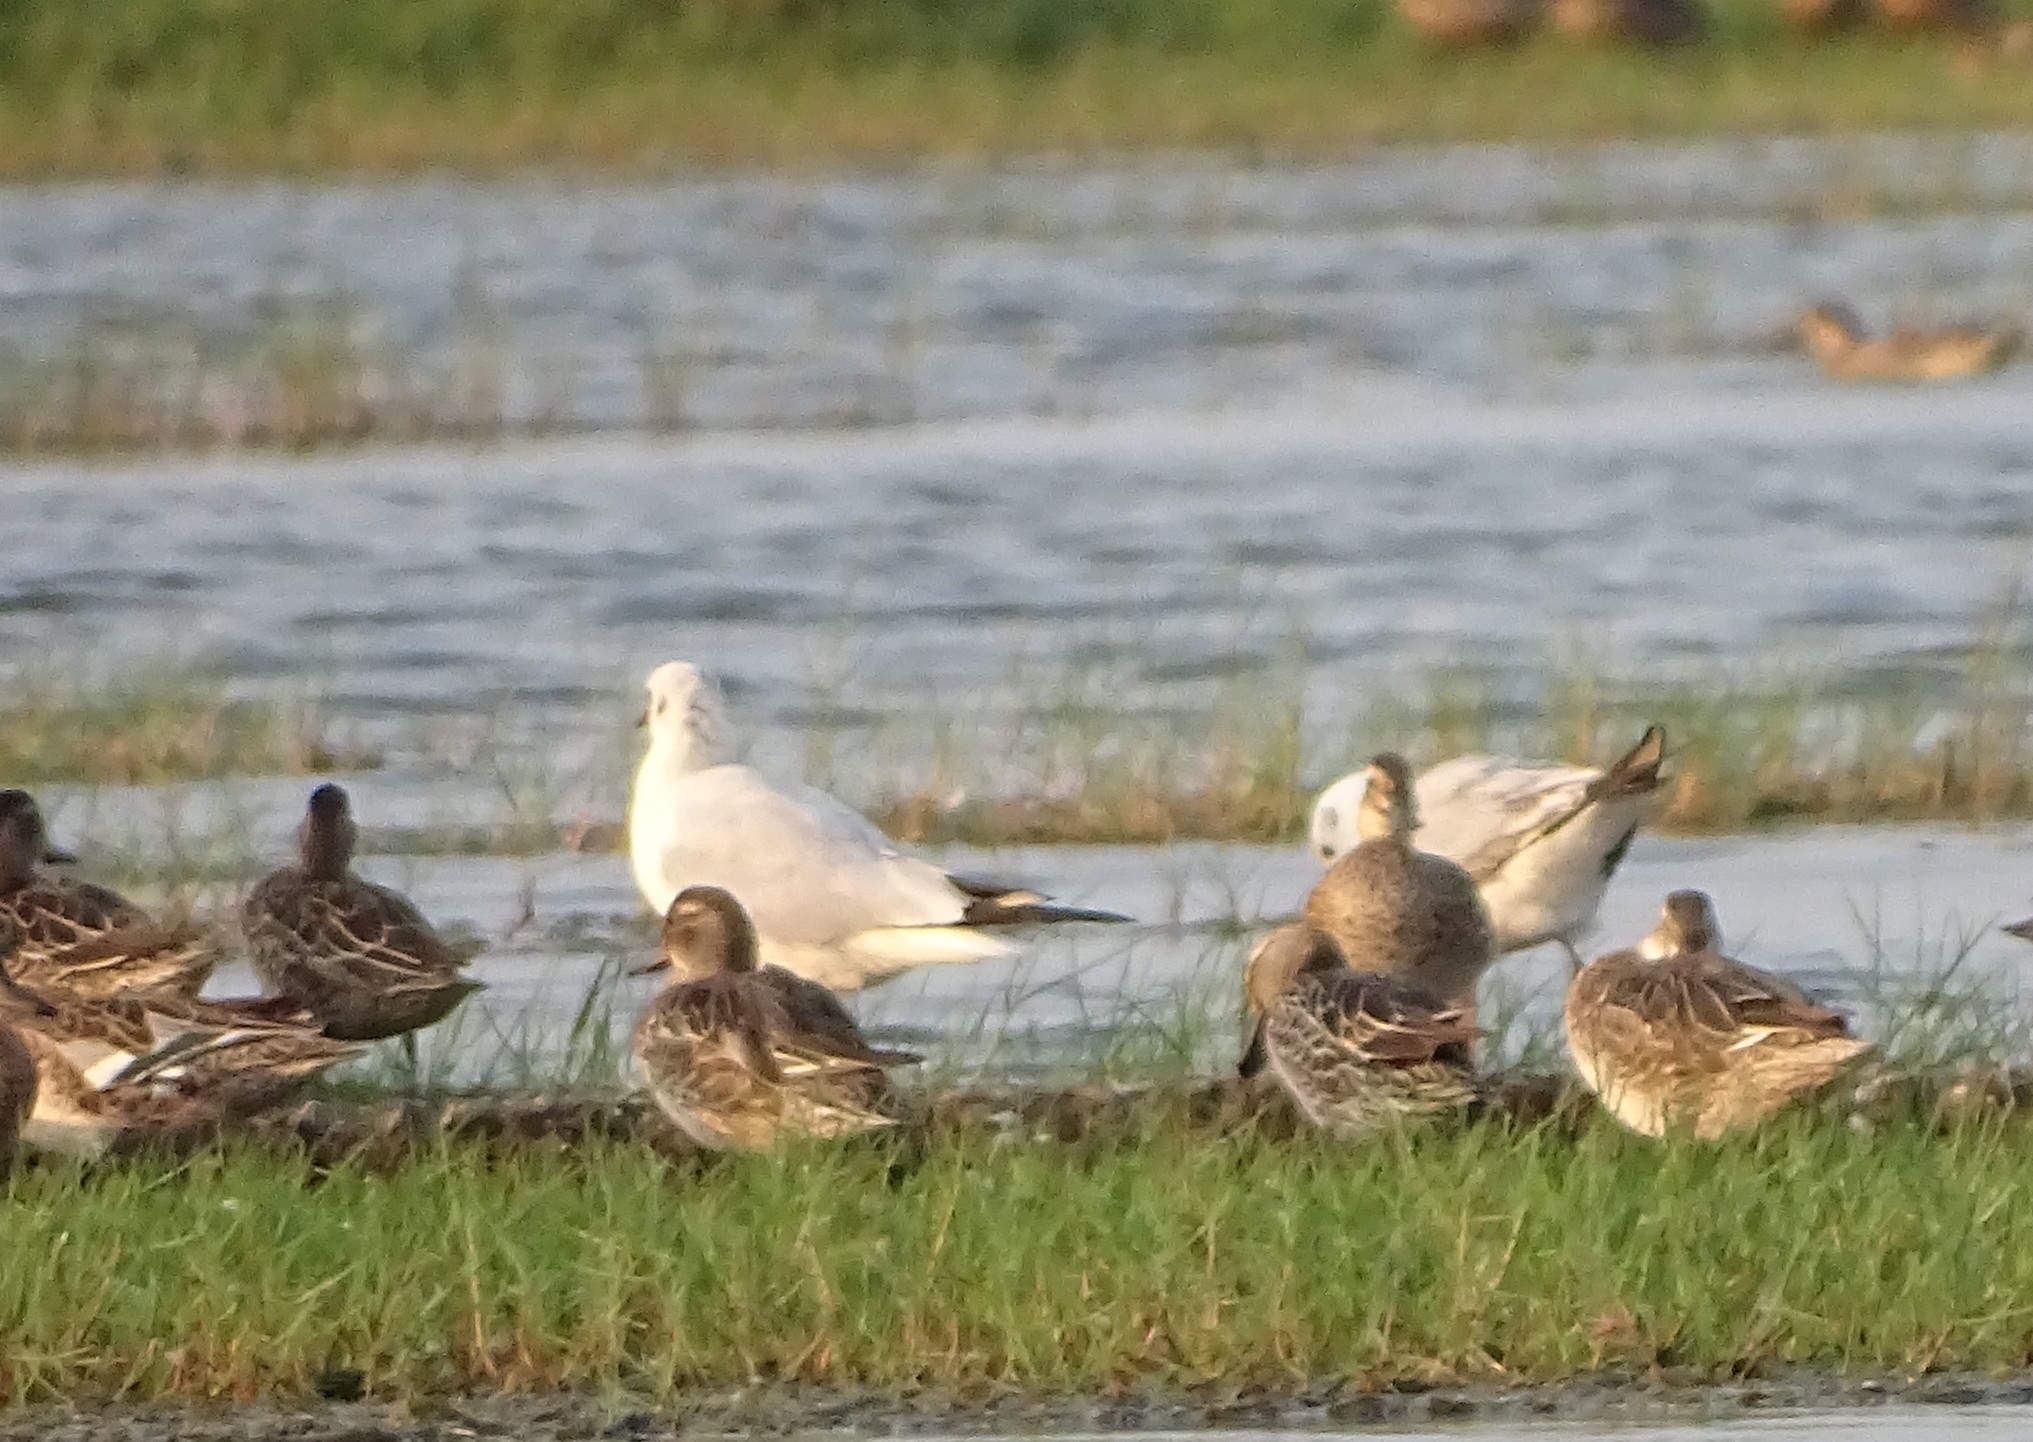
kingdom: Animalia
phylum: Chordata
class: Aves
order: Anseriformes
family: Anatidae
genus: Spatula
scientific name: Spatula querquedula
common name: Garganey
